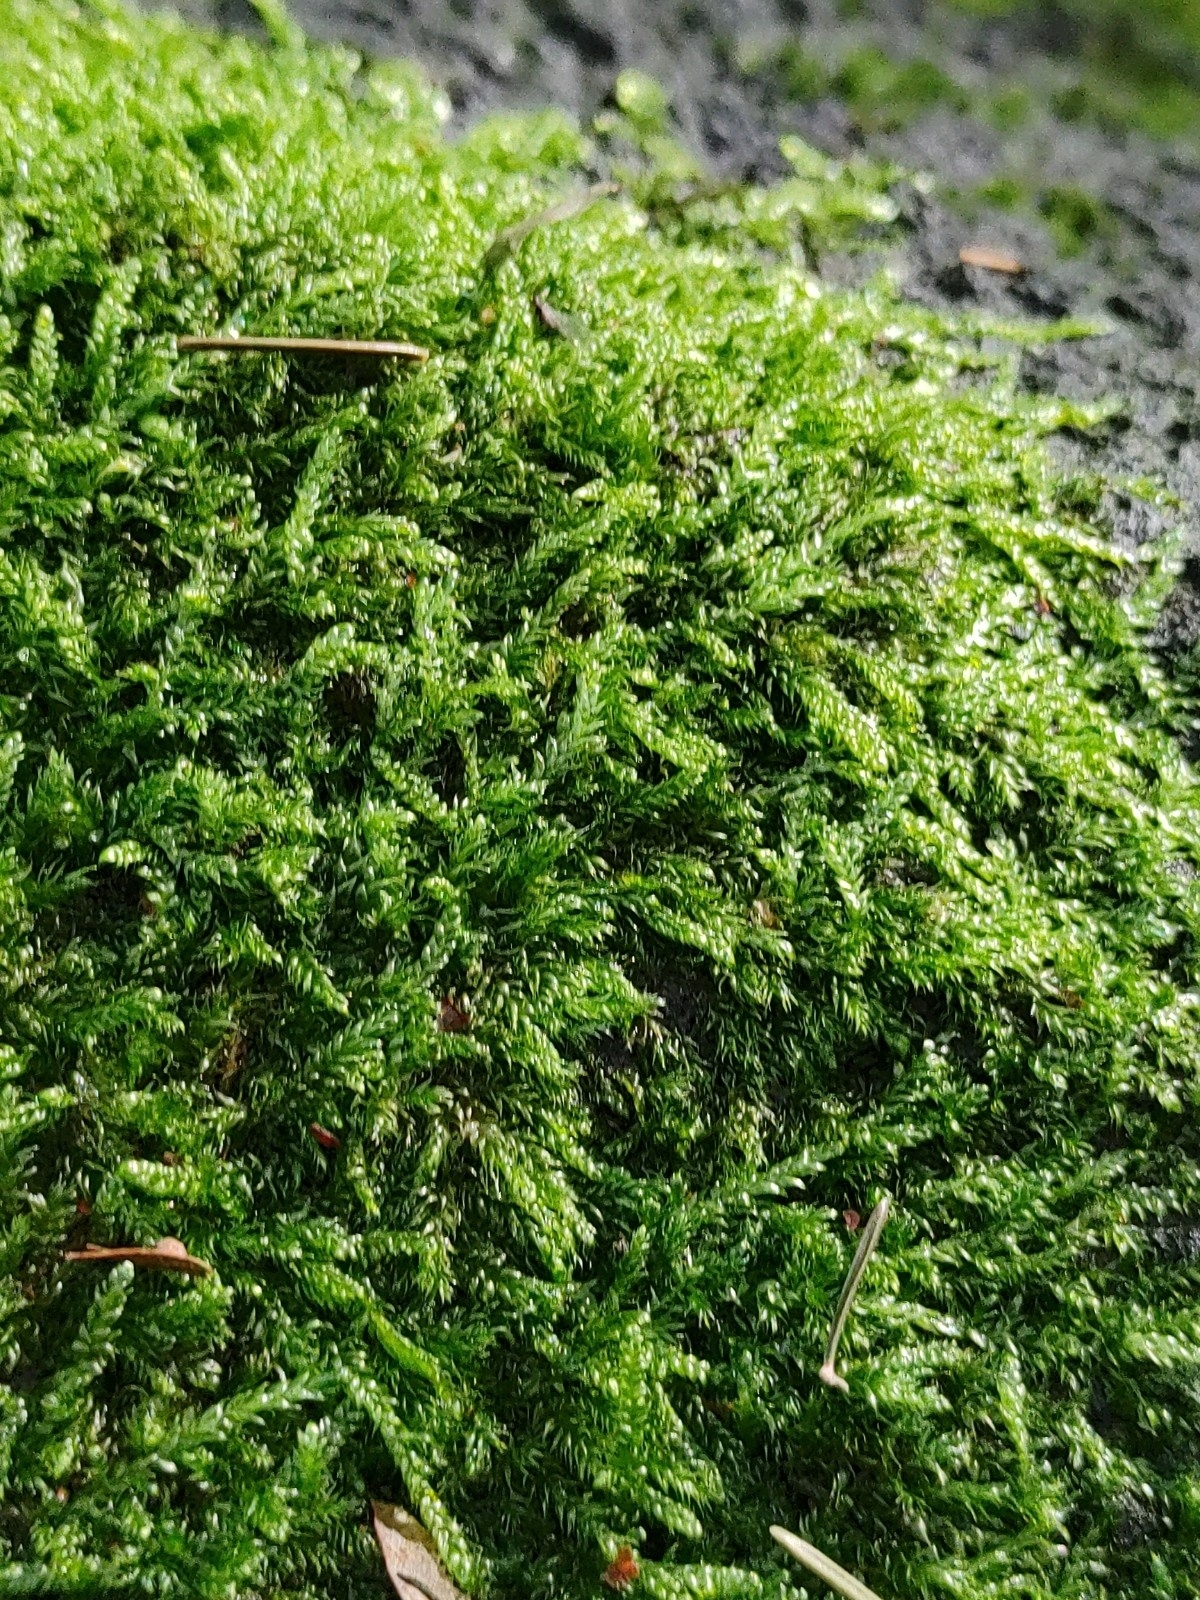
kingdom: Plantae
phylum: Bryophyta
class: Bryopsida
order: Hypnales
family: Hypnaceae
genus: Hypnum
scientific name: Hypnum cupressiforme
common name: Cypress-leaved plait-moss
